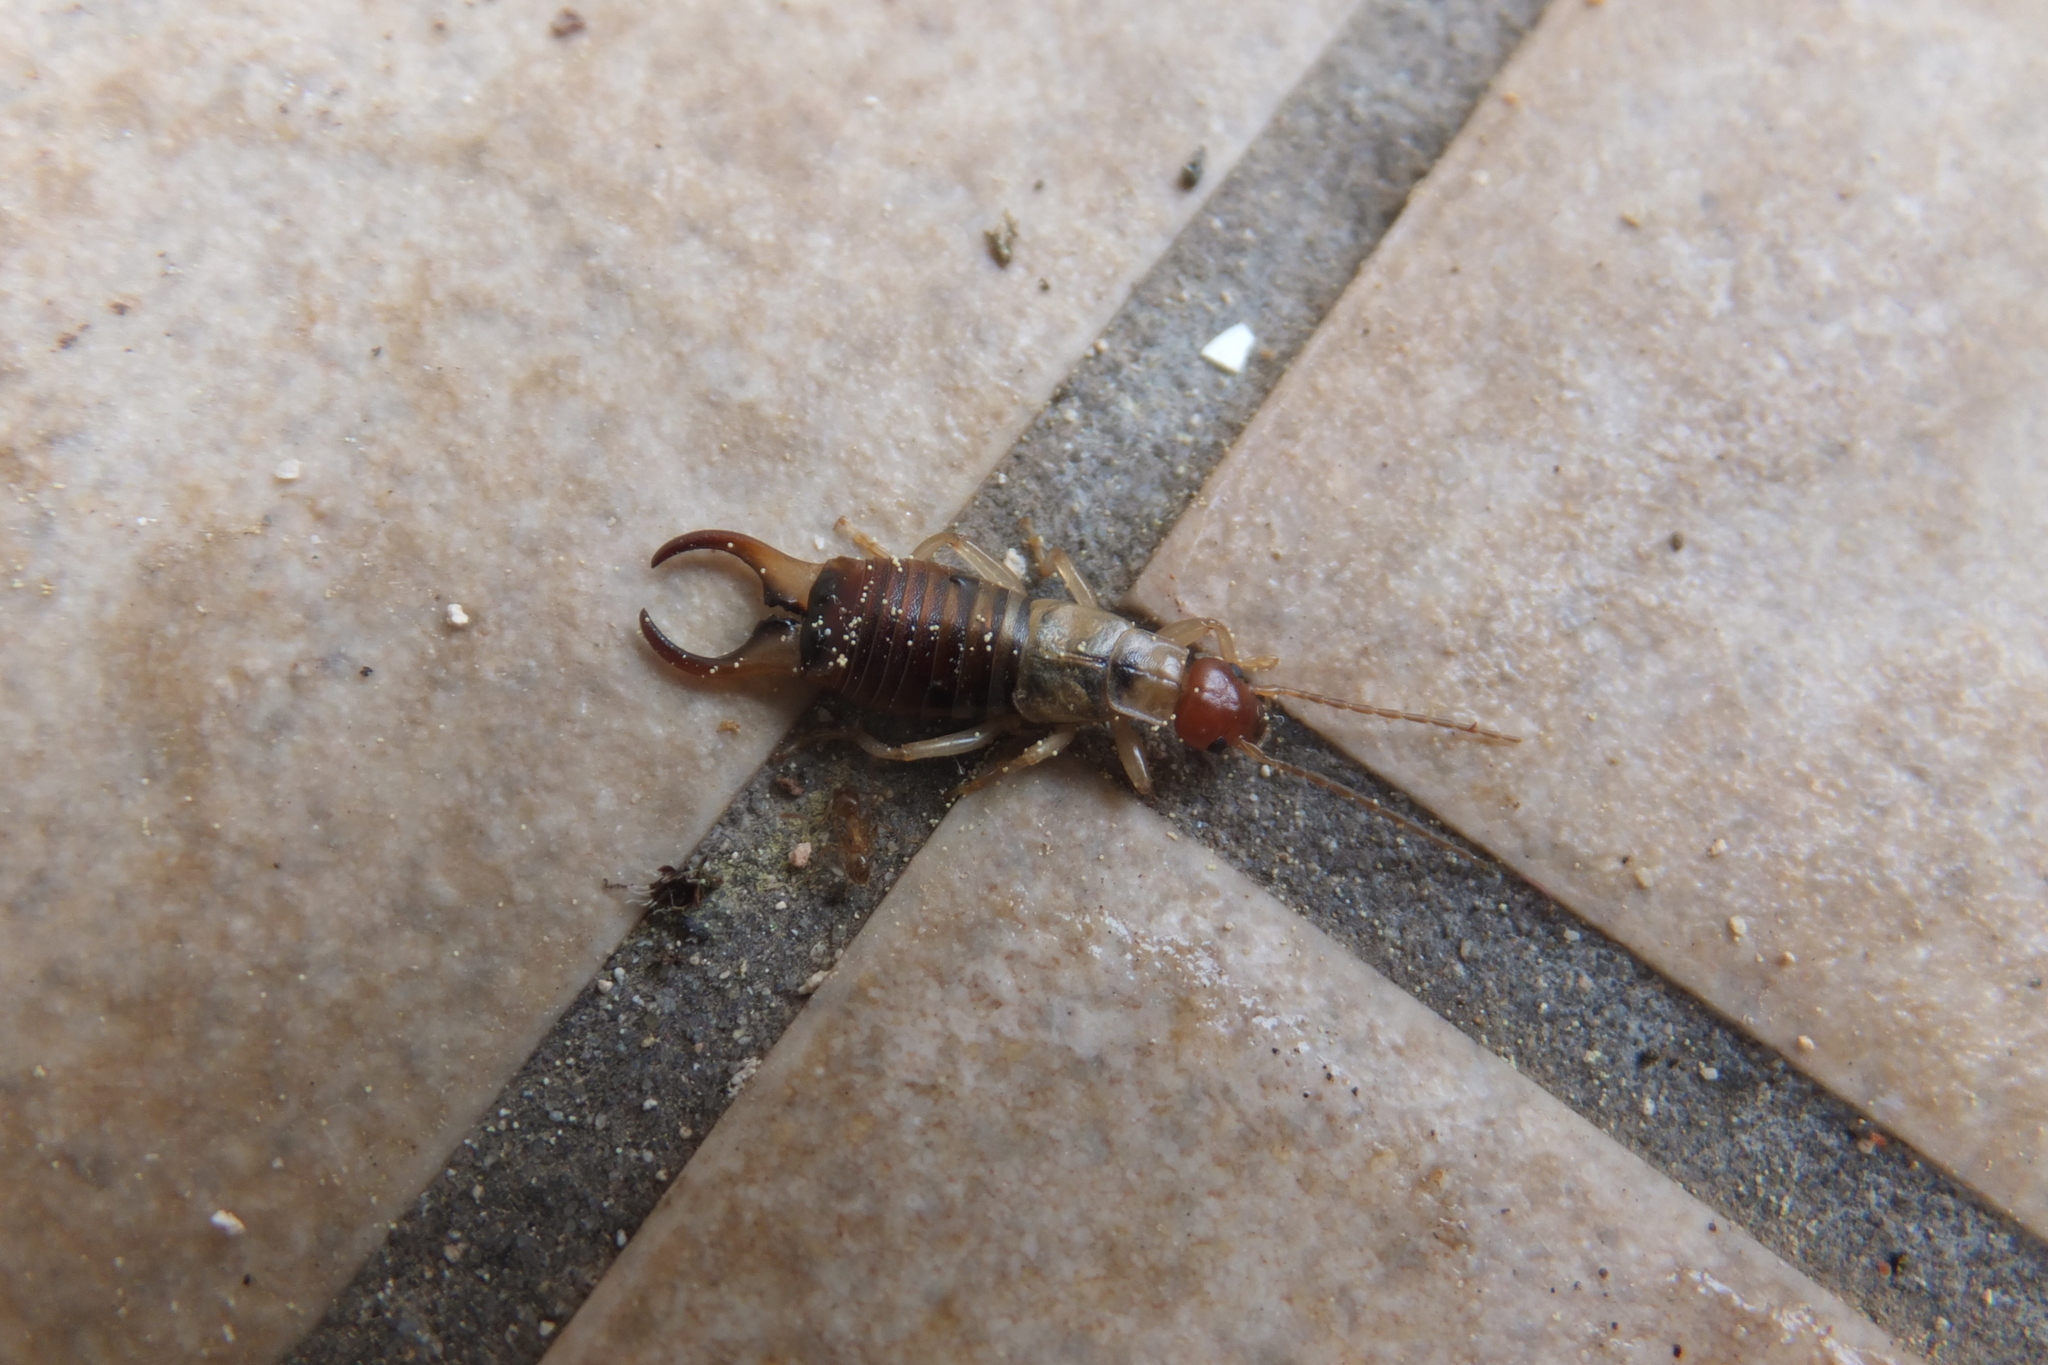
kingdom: Animalia
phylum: Arthropoda
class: Insecta
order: Dermaptera
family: Forficulidae
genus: Forficula
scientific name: Forficula decipiens
